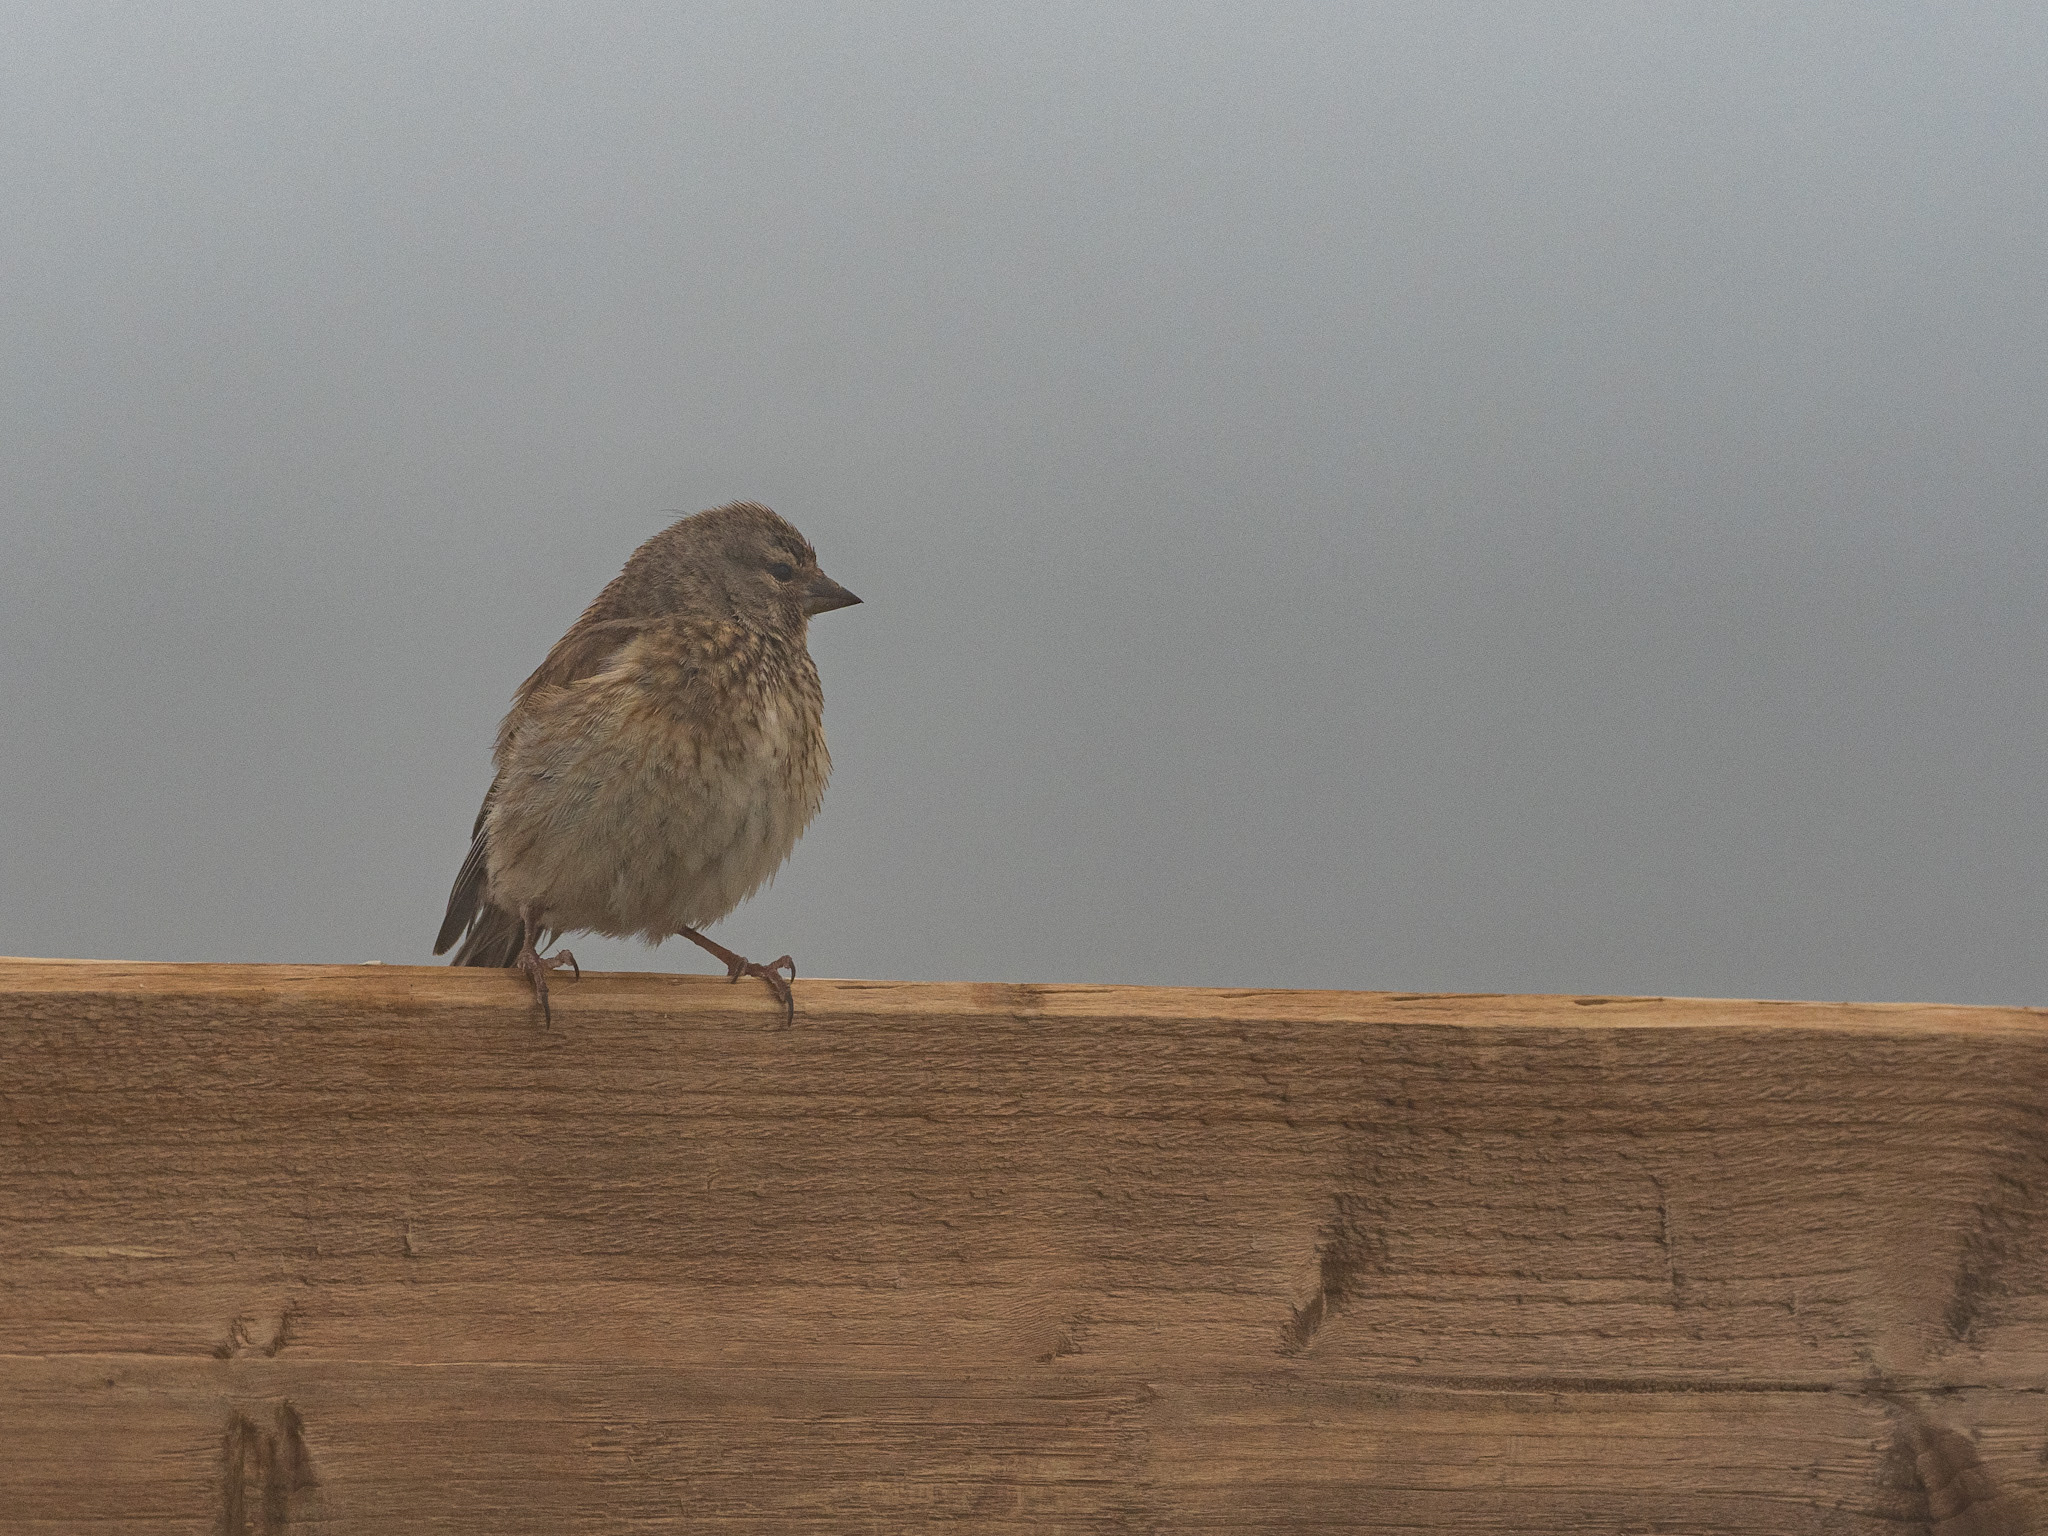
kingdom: Animalia
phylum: Chordata
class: Aves
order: Passeriformes
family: Fringillidae
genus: Linaria
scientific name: Linaria cannabina
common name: Common linnet
